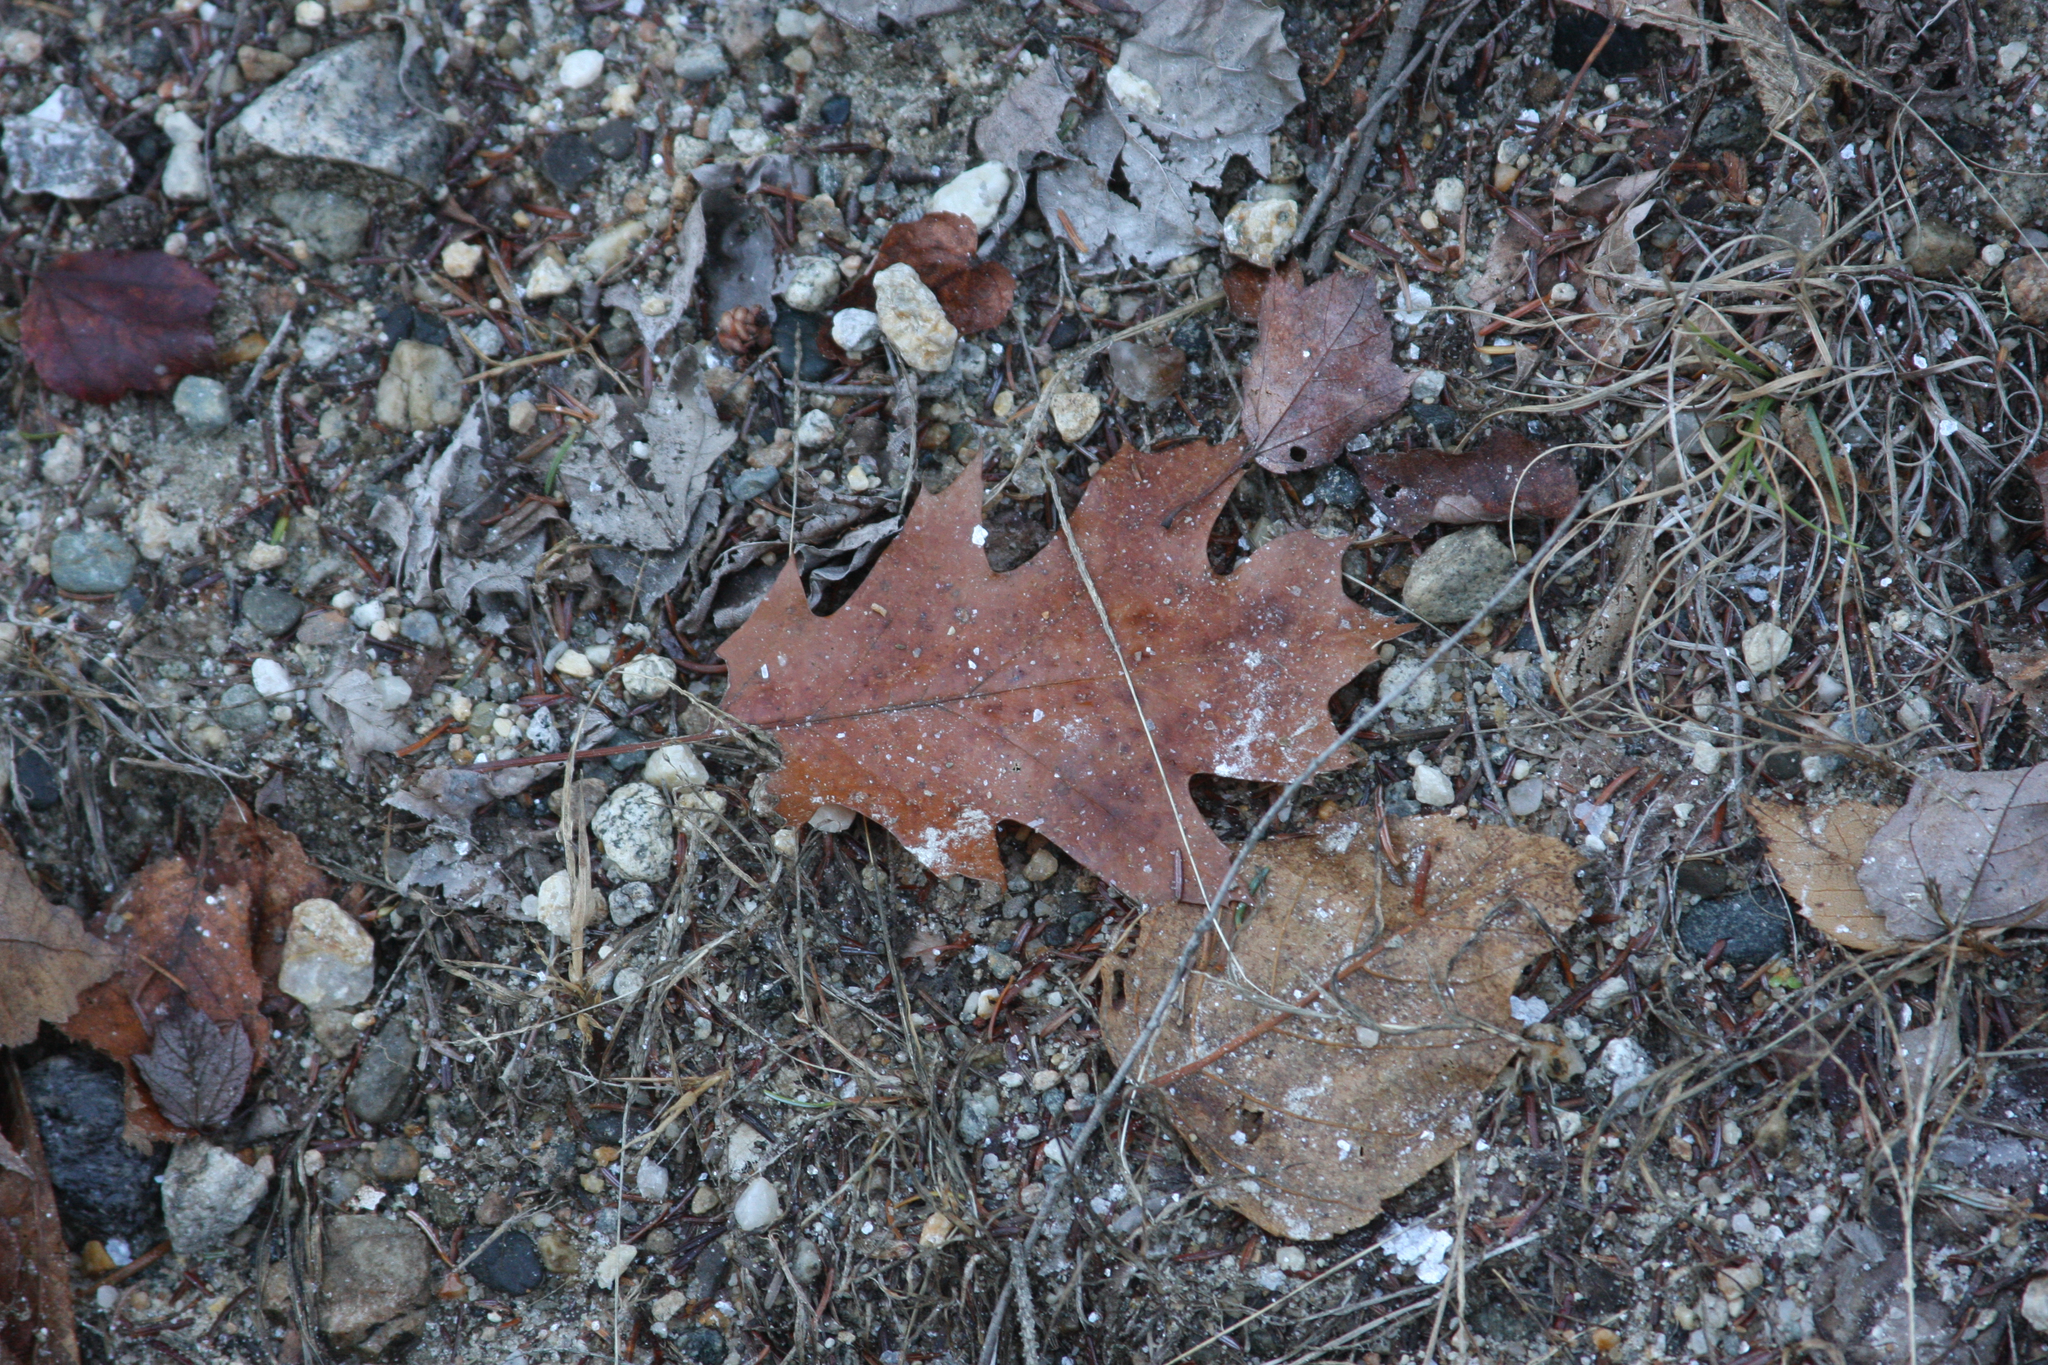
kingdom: Plantae
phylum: Tracheophyta
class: Magnoliopsida
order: Fagales
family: Fagaceae
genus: Quercus
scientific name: Quercus rubra
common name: Red oak
